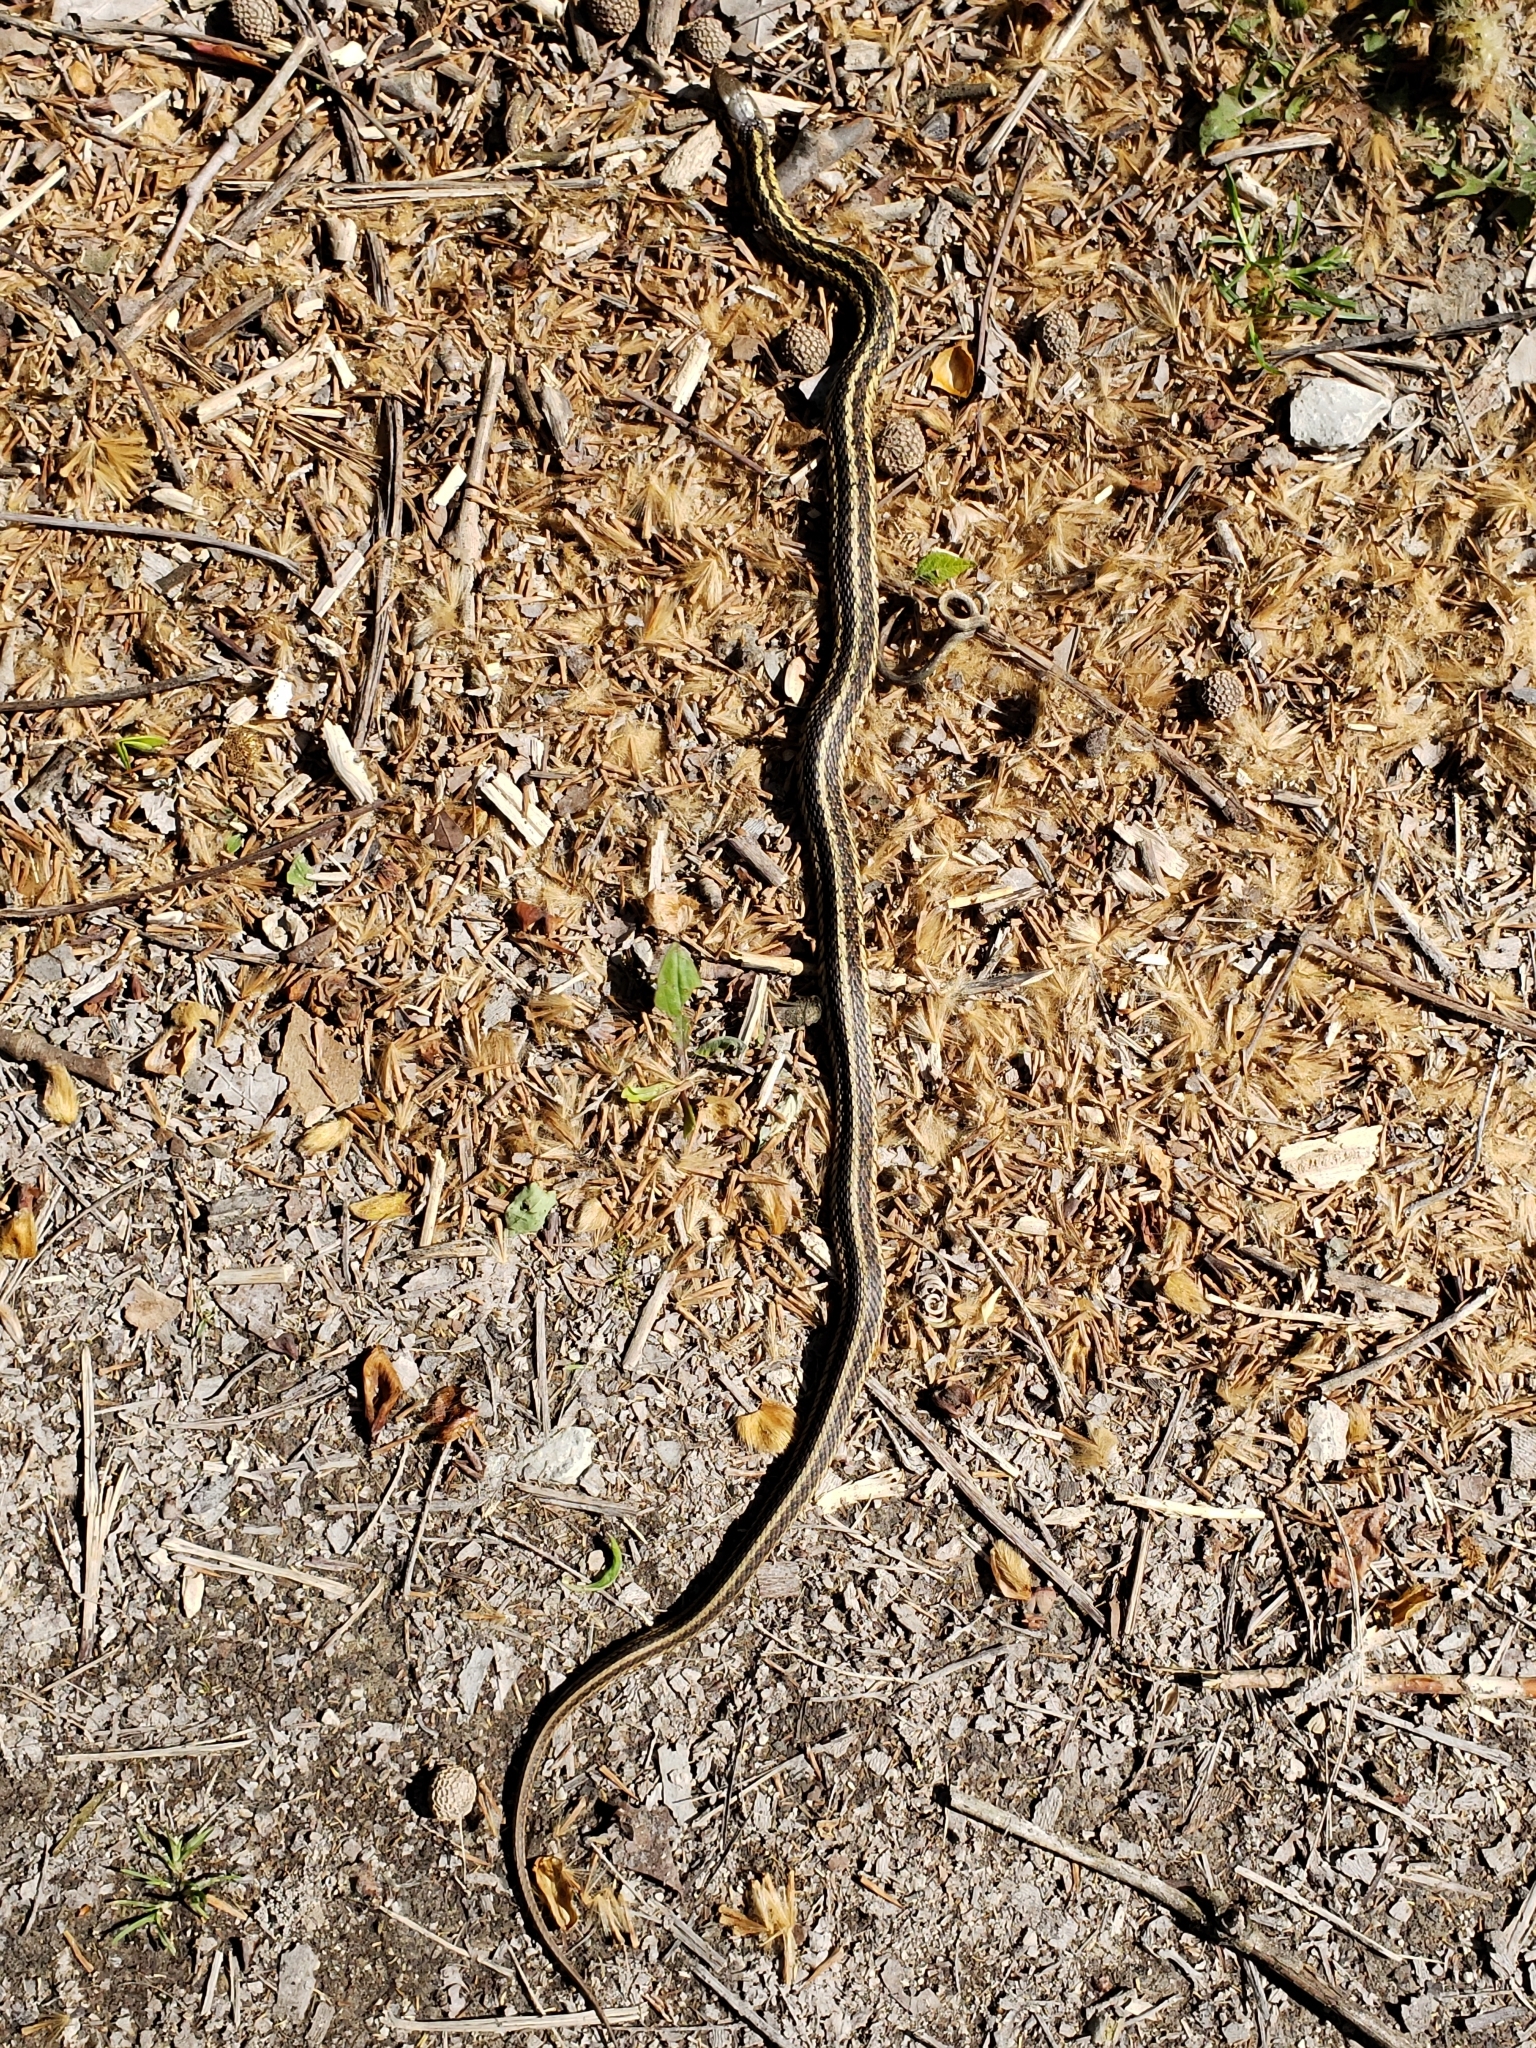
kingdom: Animalia
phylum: Chordata
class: Squamata
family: Colubridae
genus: Thamnophis
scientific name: Thamnophis sirtalis
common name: Common garter snake
